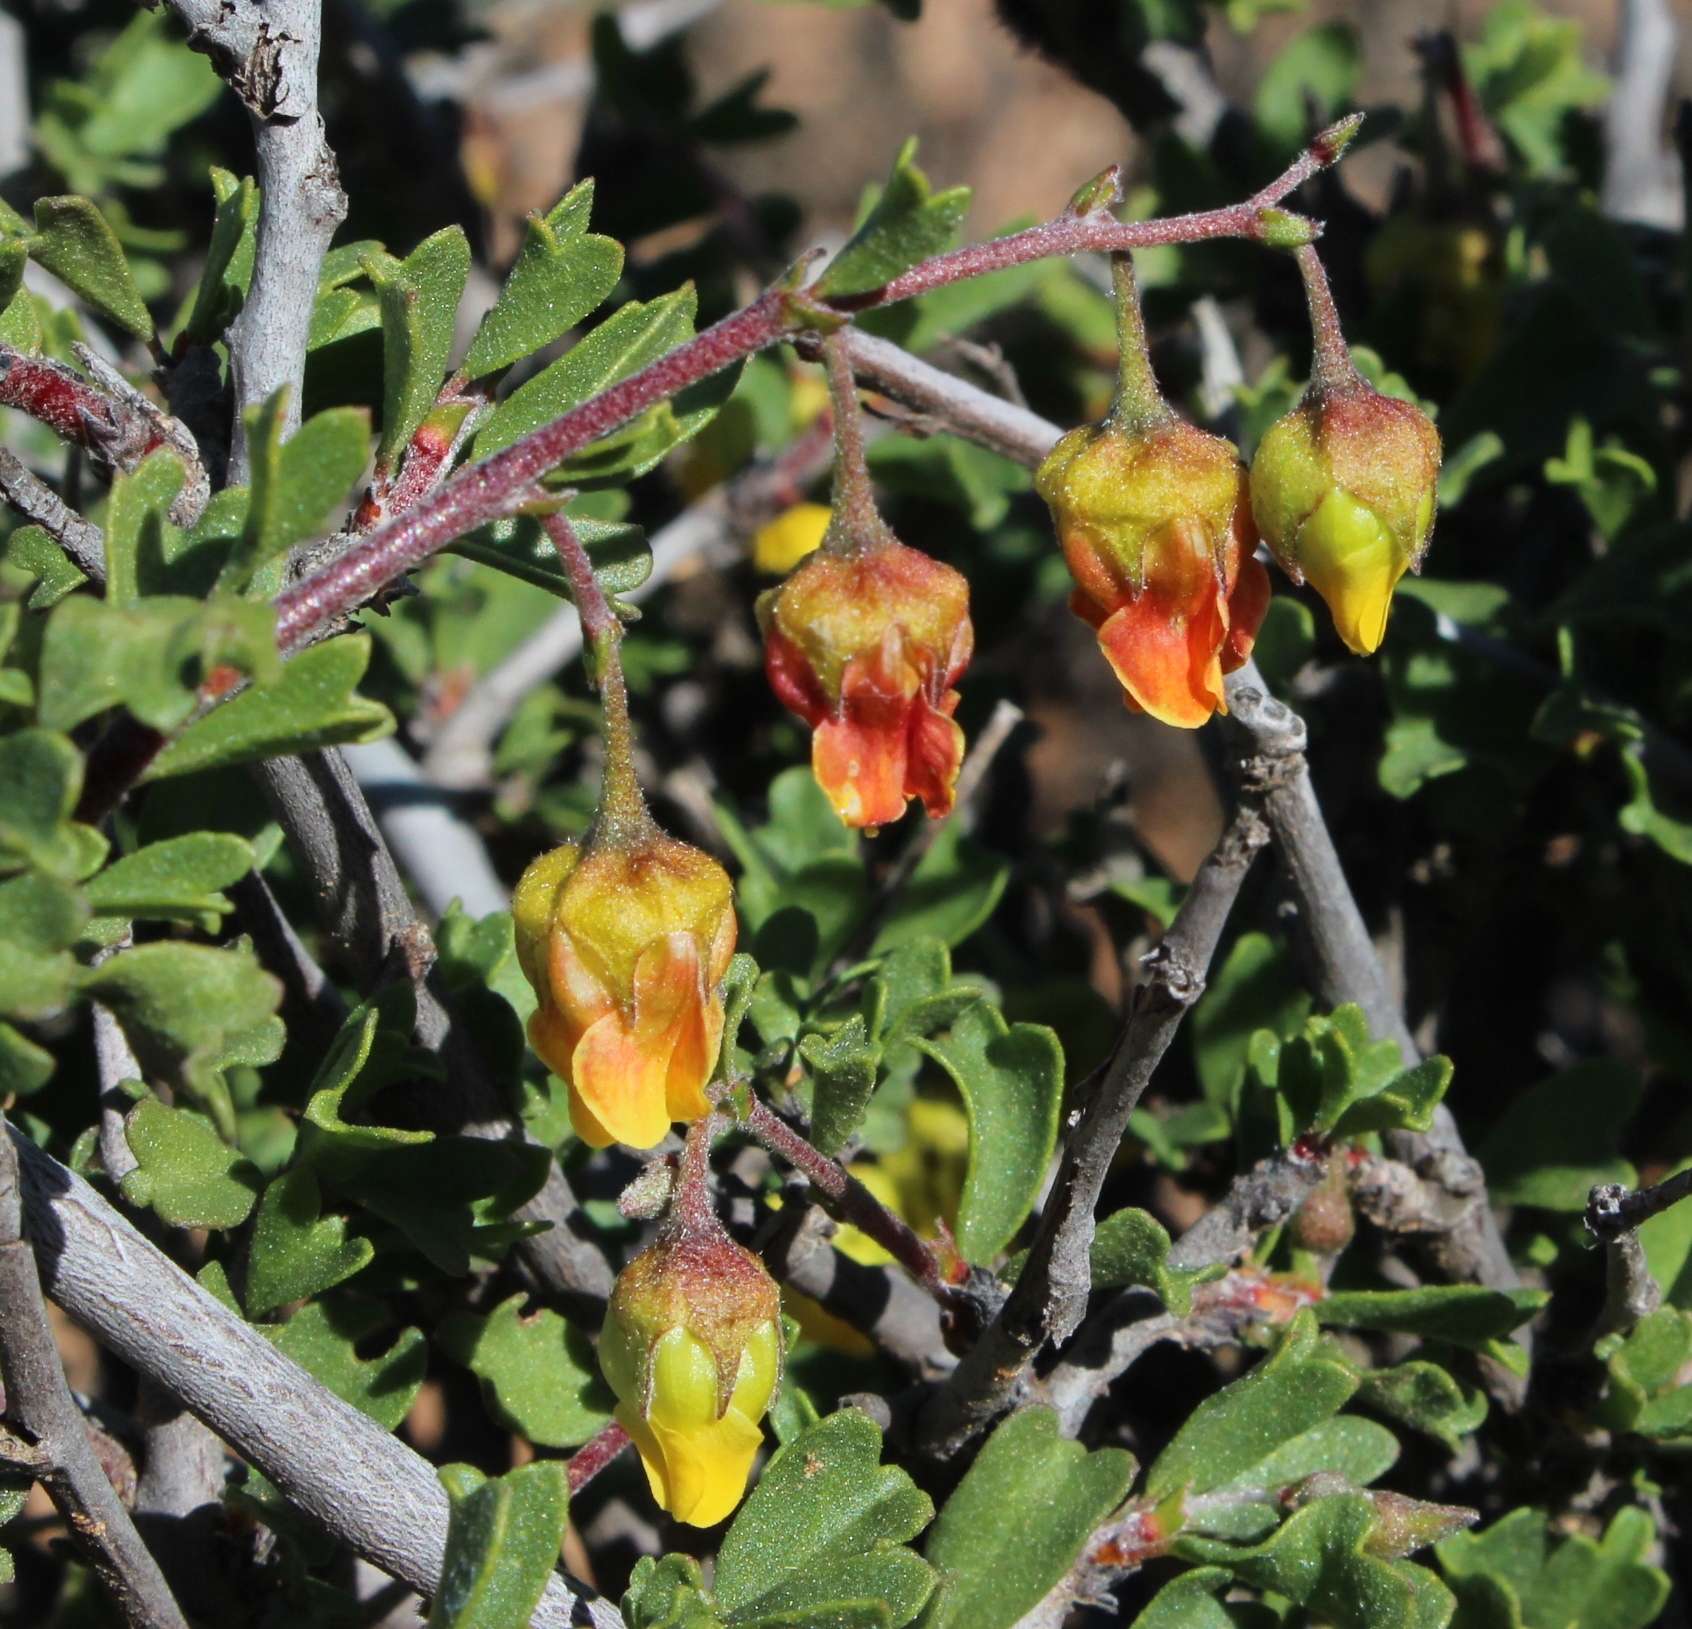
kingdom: Plantae
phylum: Tracheophyta
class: Magnoliopsida
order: Malvales
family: Malvaceae
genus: Hermannia
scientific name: Hermannia cuneifolia
